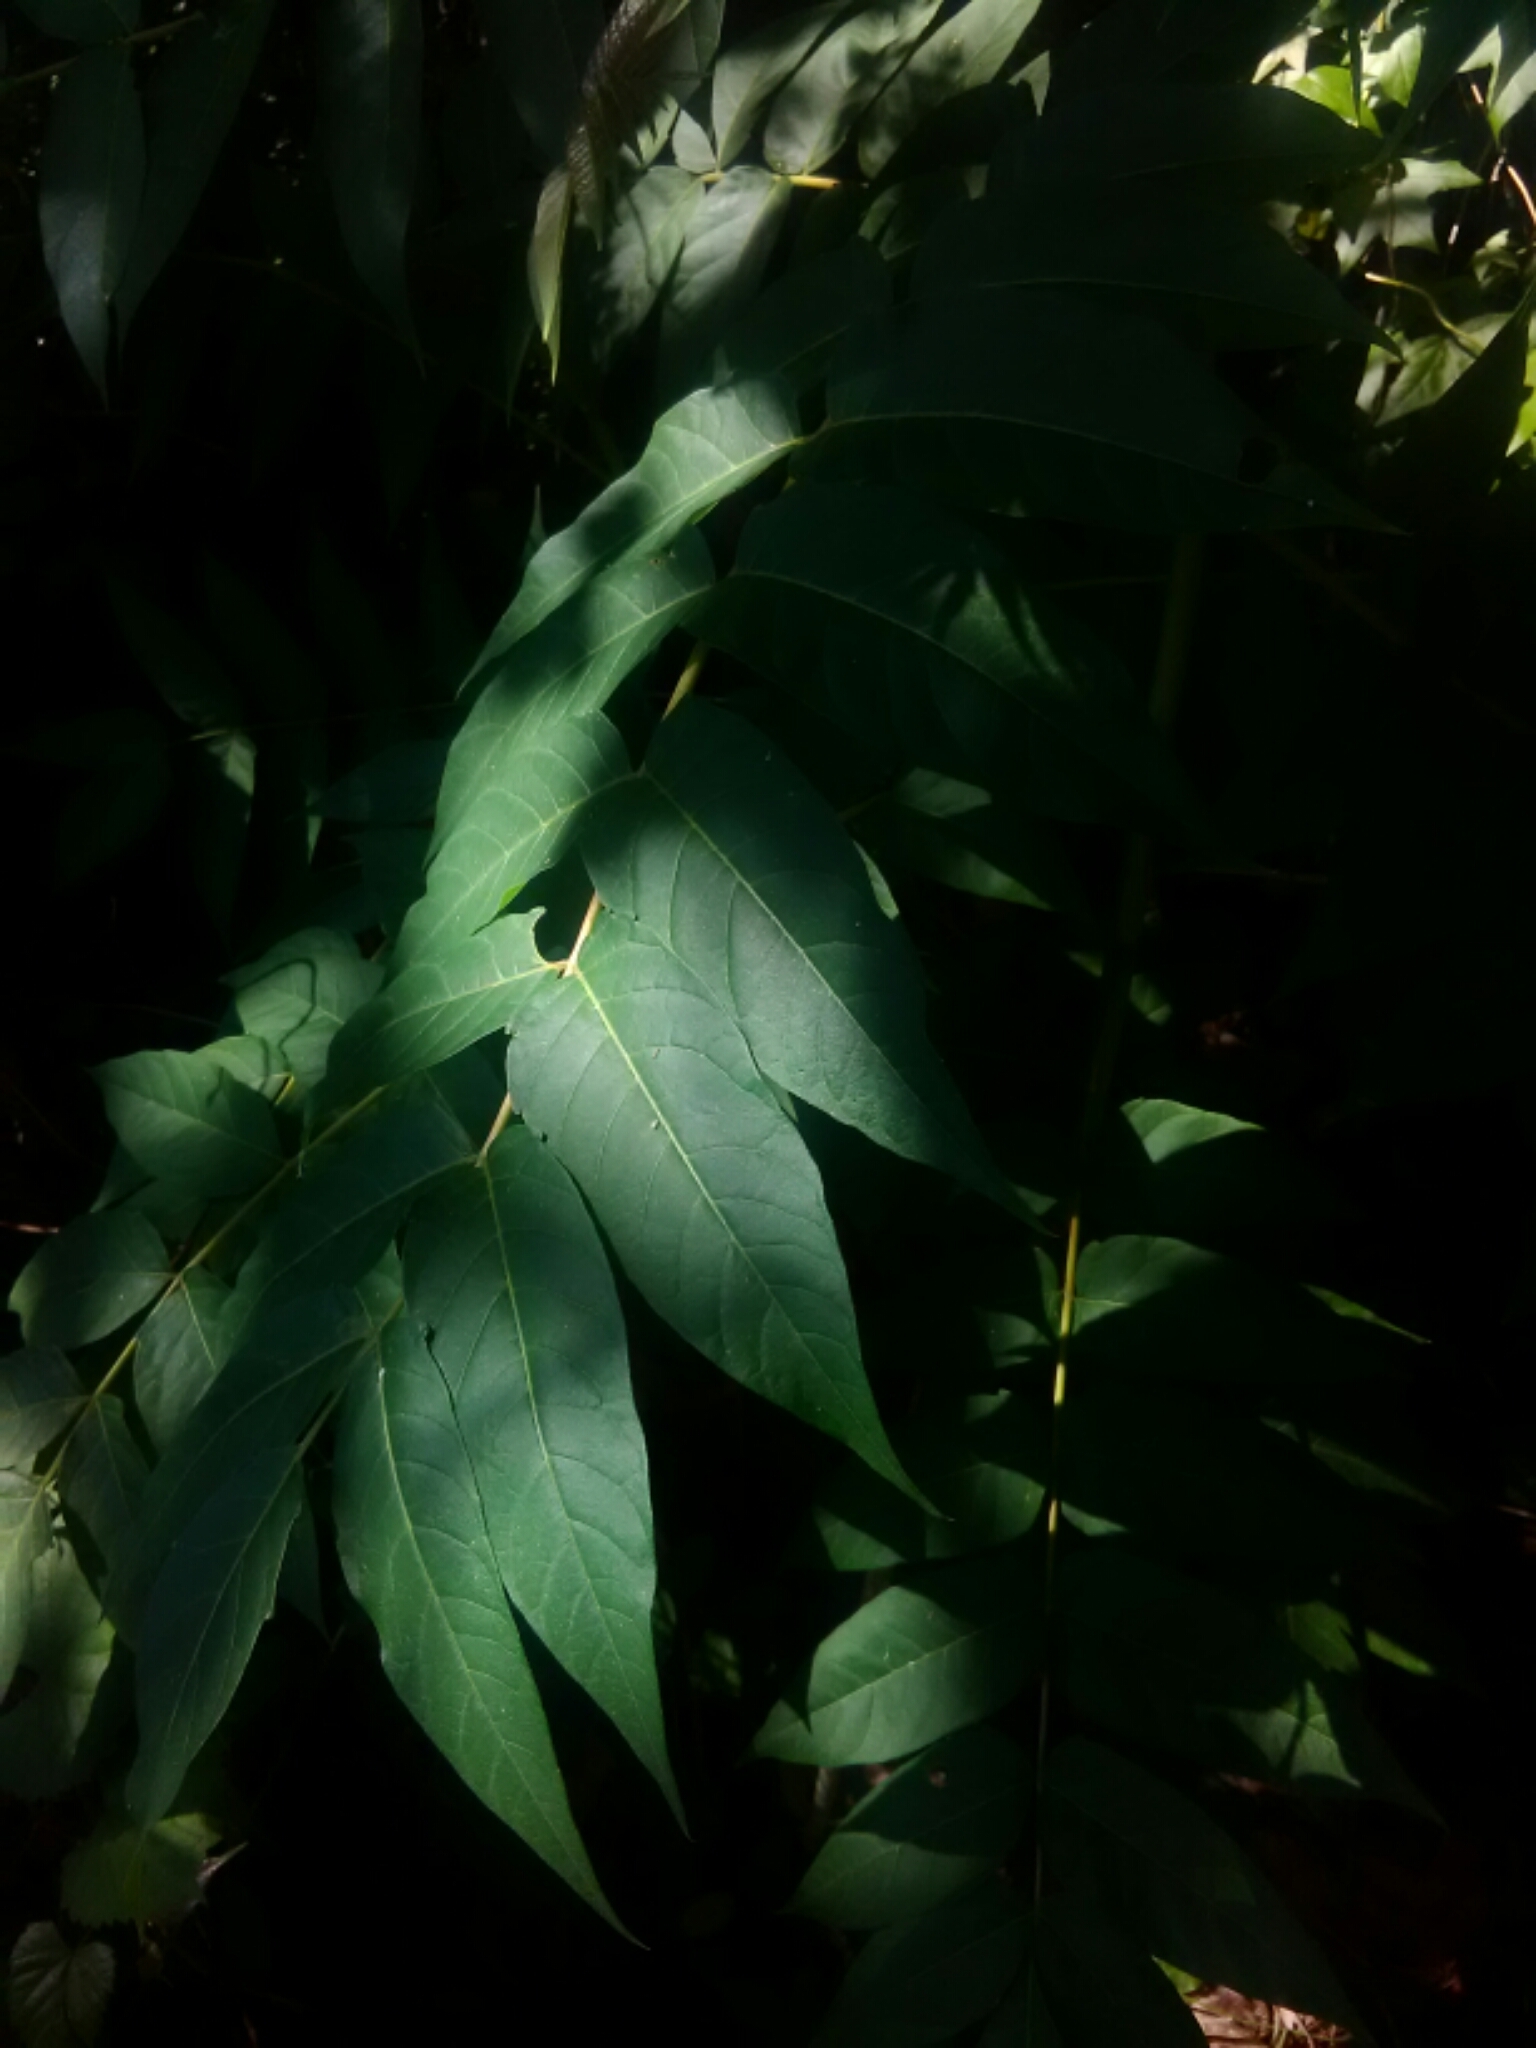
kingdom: Plantae
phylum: Tracheophyta
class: Magnoliopsida
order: Sapindales
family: Simaroubaceae
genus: Ailanthus
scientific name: Ailanthus altissima
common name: Tree-of-heaven
